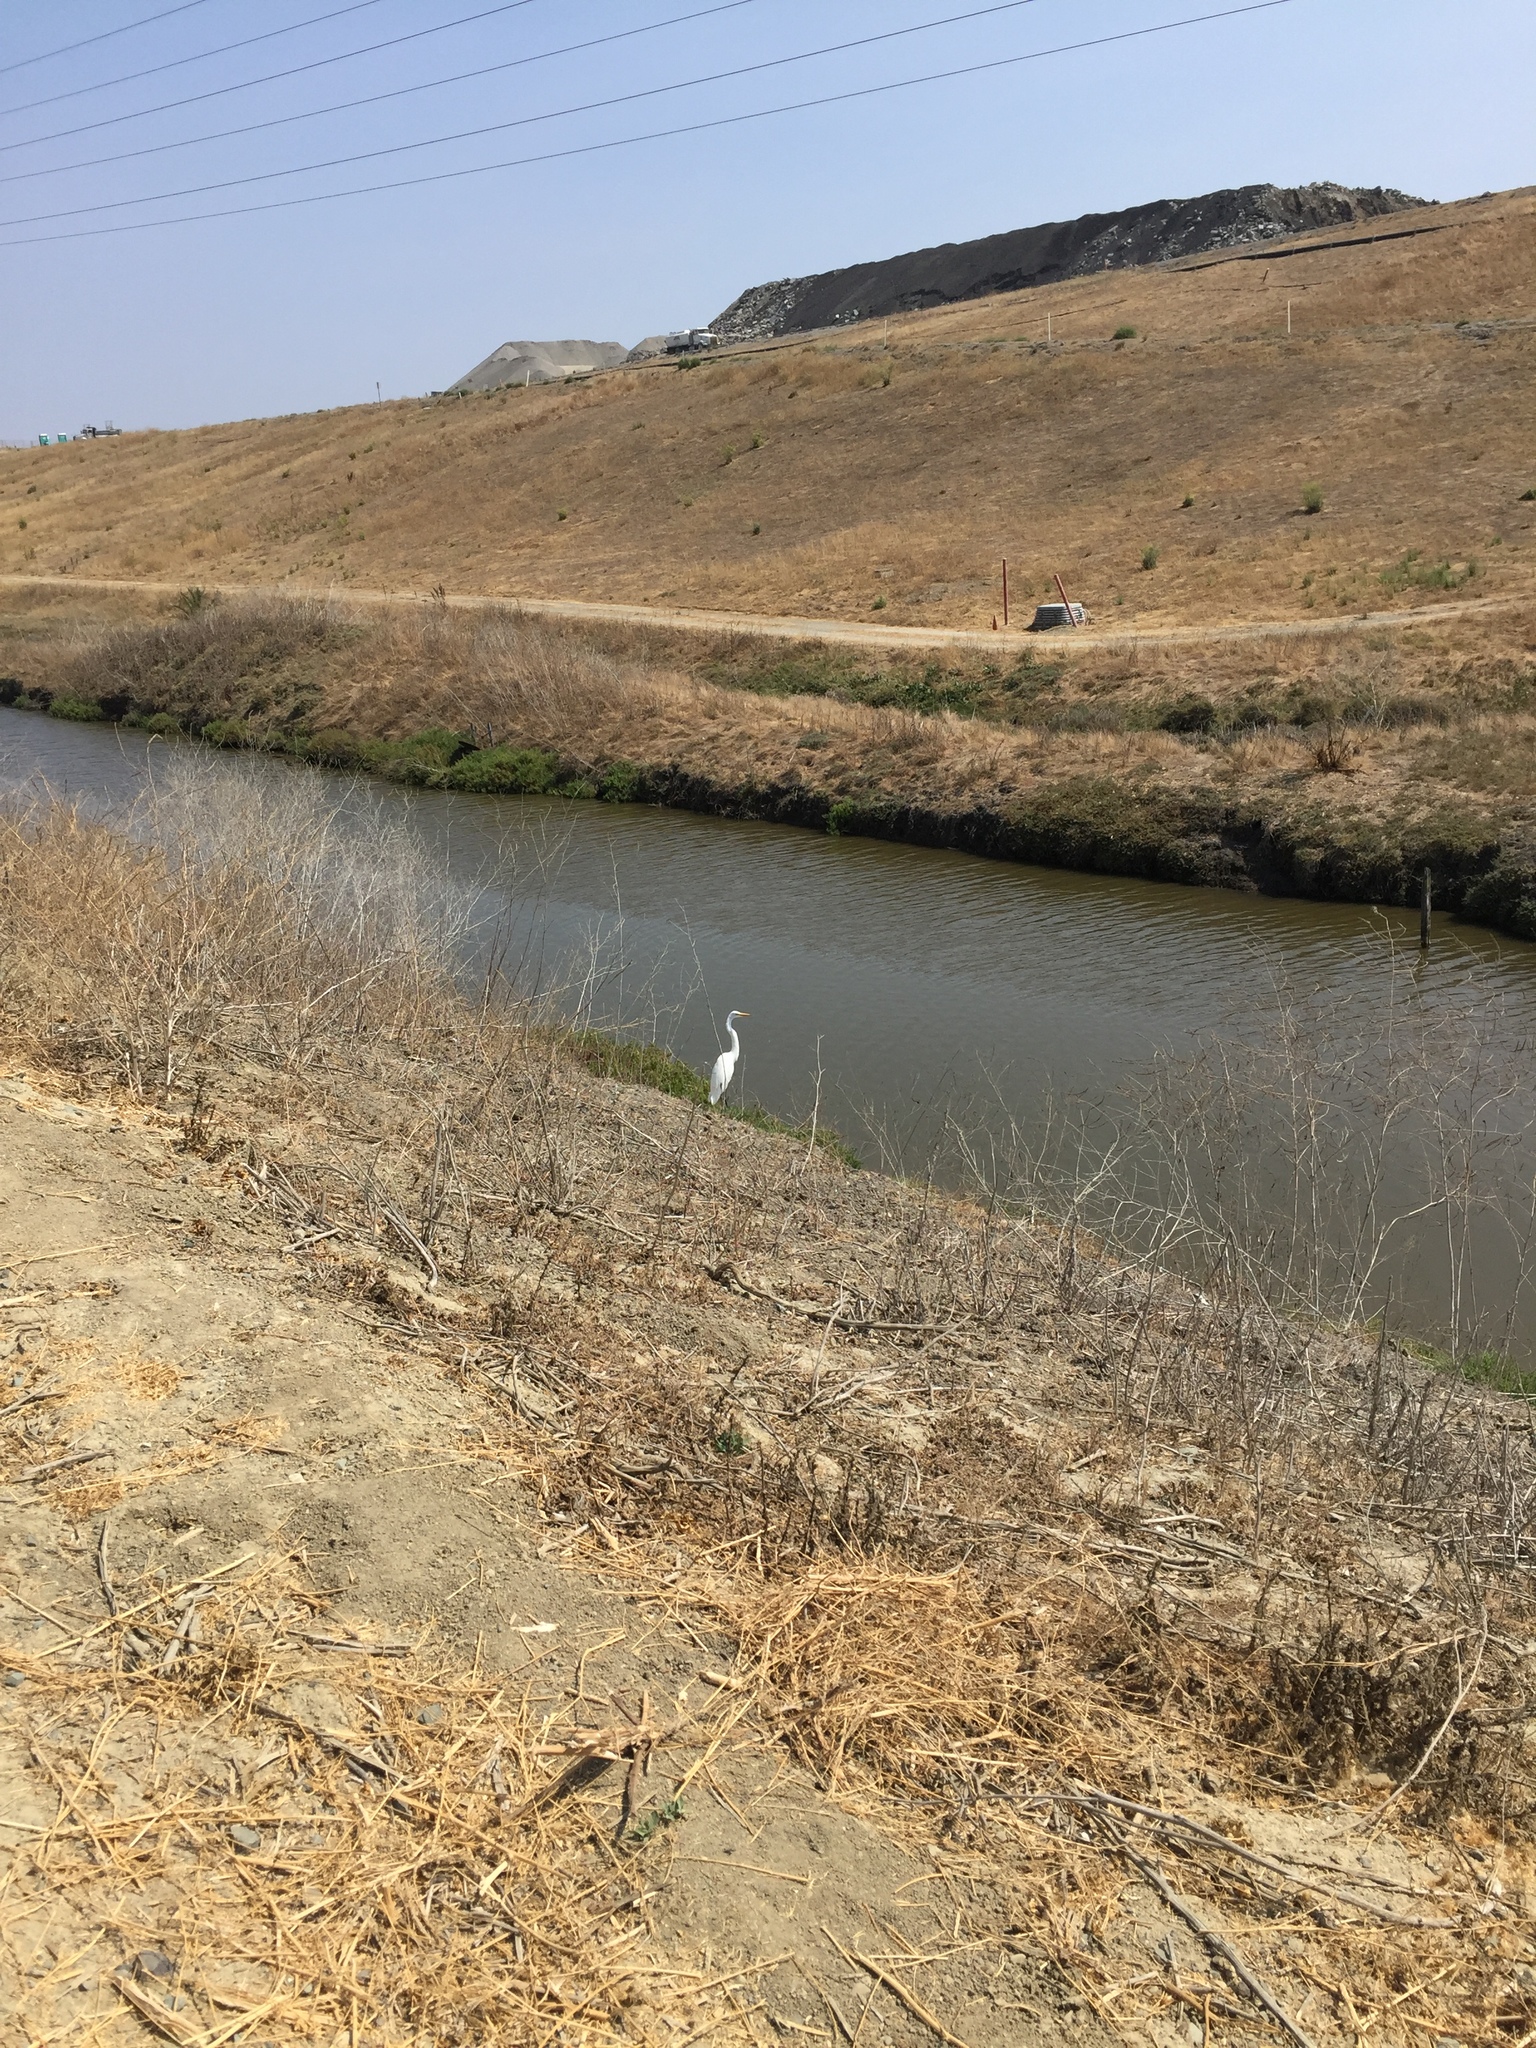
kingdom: Animalia
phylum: Chordata
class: Aves
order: Pelecaniformes
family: Ardeidae
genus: Ardea
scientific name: Ardea alba
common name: Great egret
